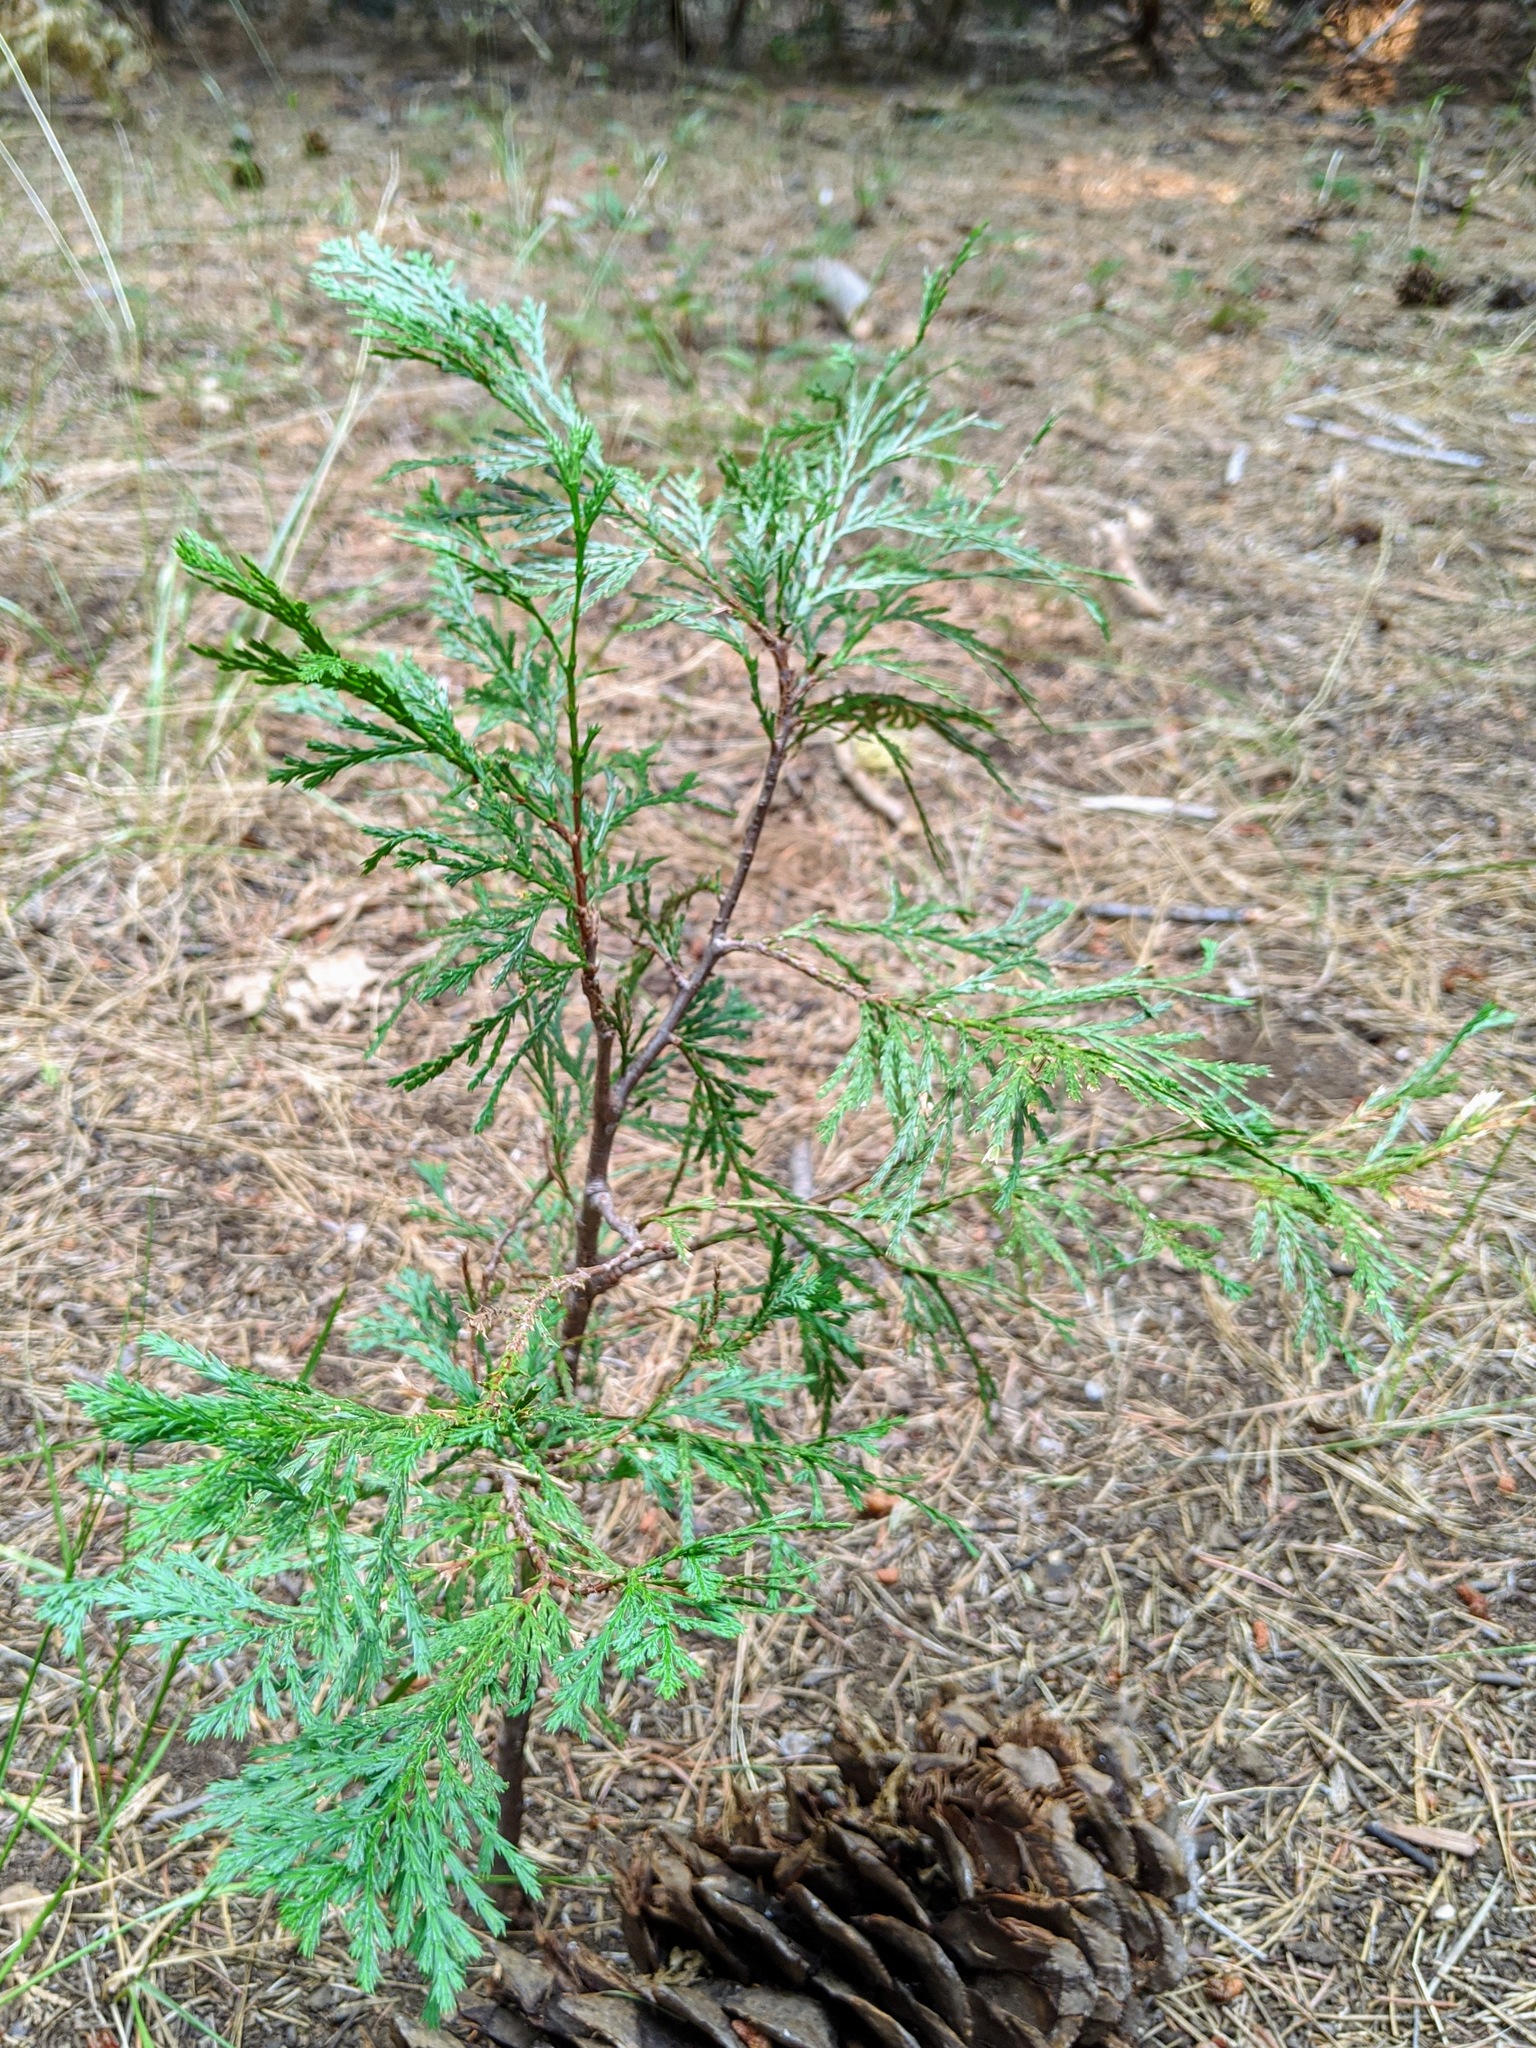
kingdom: Plantae
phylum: Tracheophyta
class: Pinopsida
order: Pinales
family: Cupressaceae
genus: Calocedrus
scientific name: Calocedrus decurrens
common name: Californian incense-cedar
